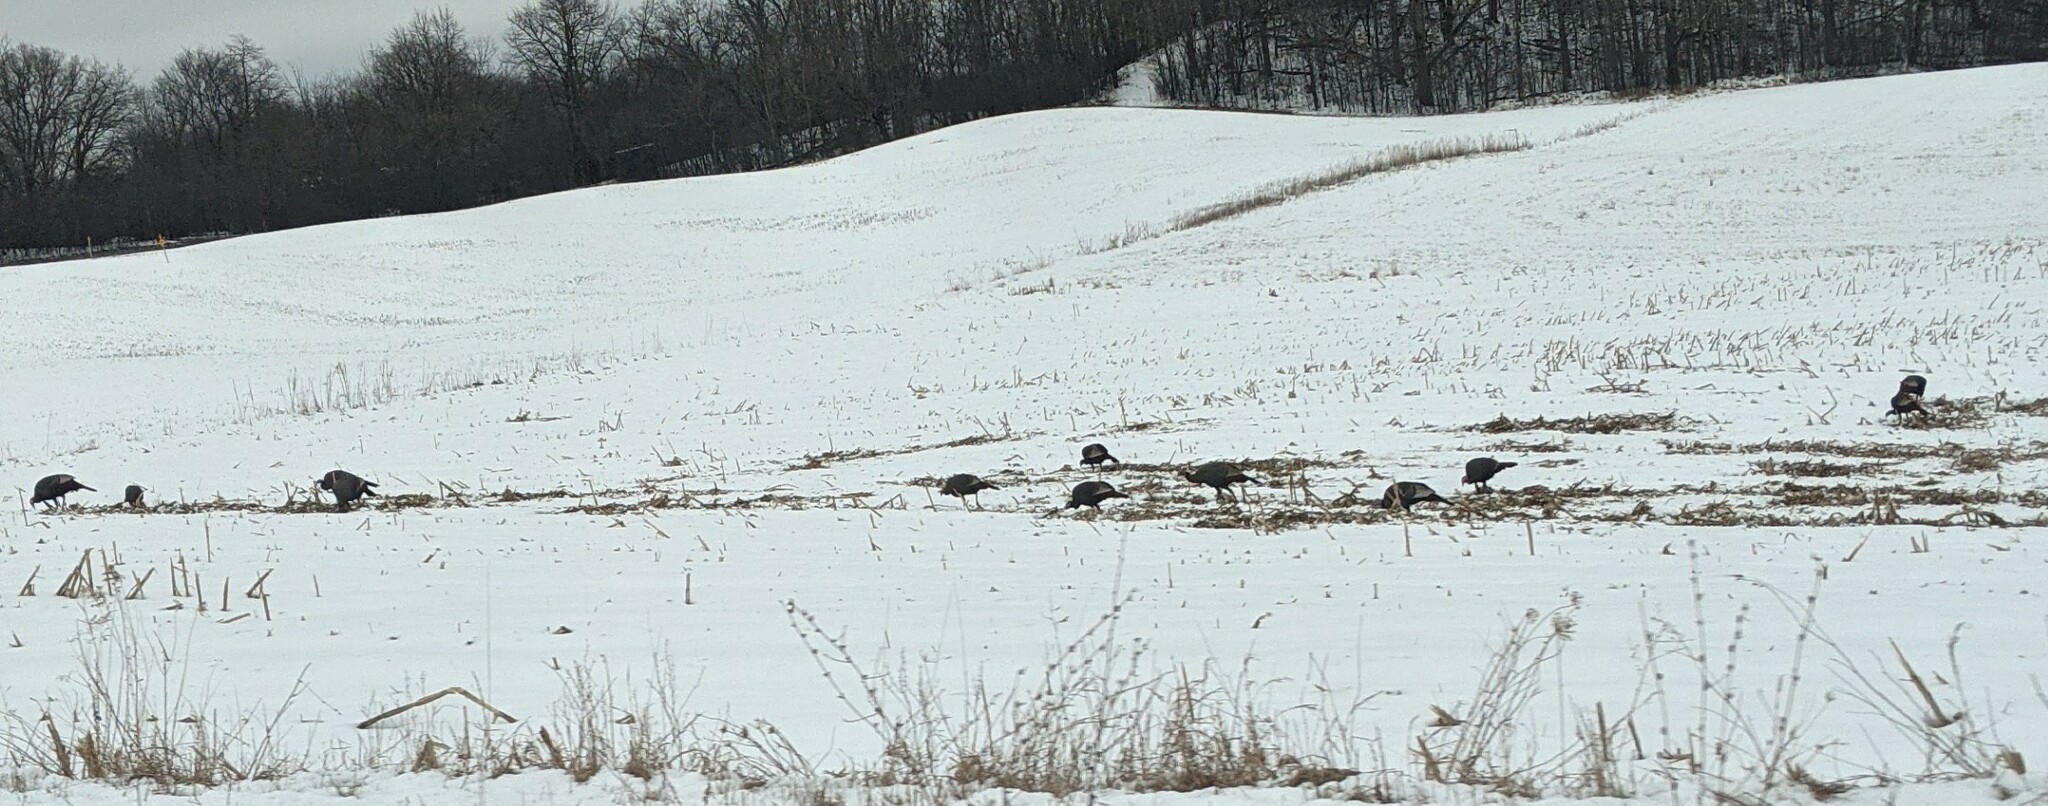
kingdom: Animalia
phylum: Chordata
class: Aves
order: Galliformes
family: Phasianidae
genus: Meleagris
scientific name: Meleagris gallopavo
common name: Wild turkey
